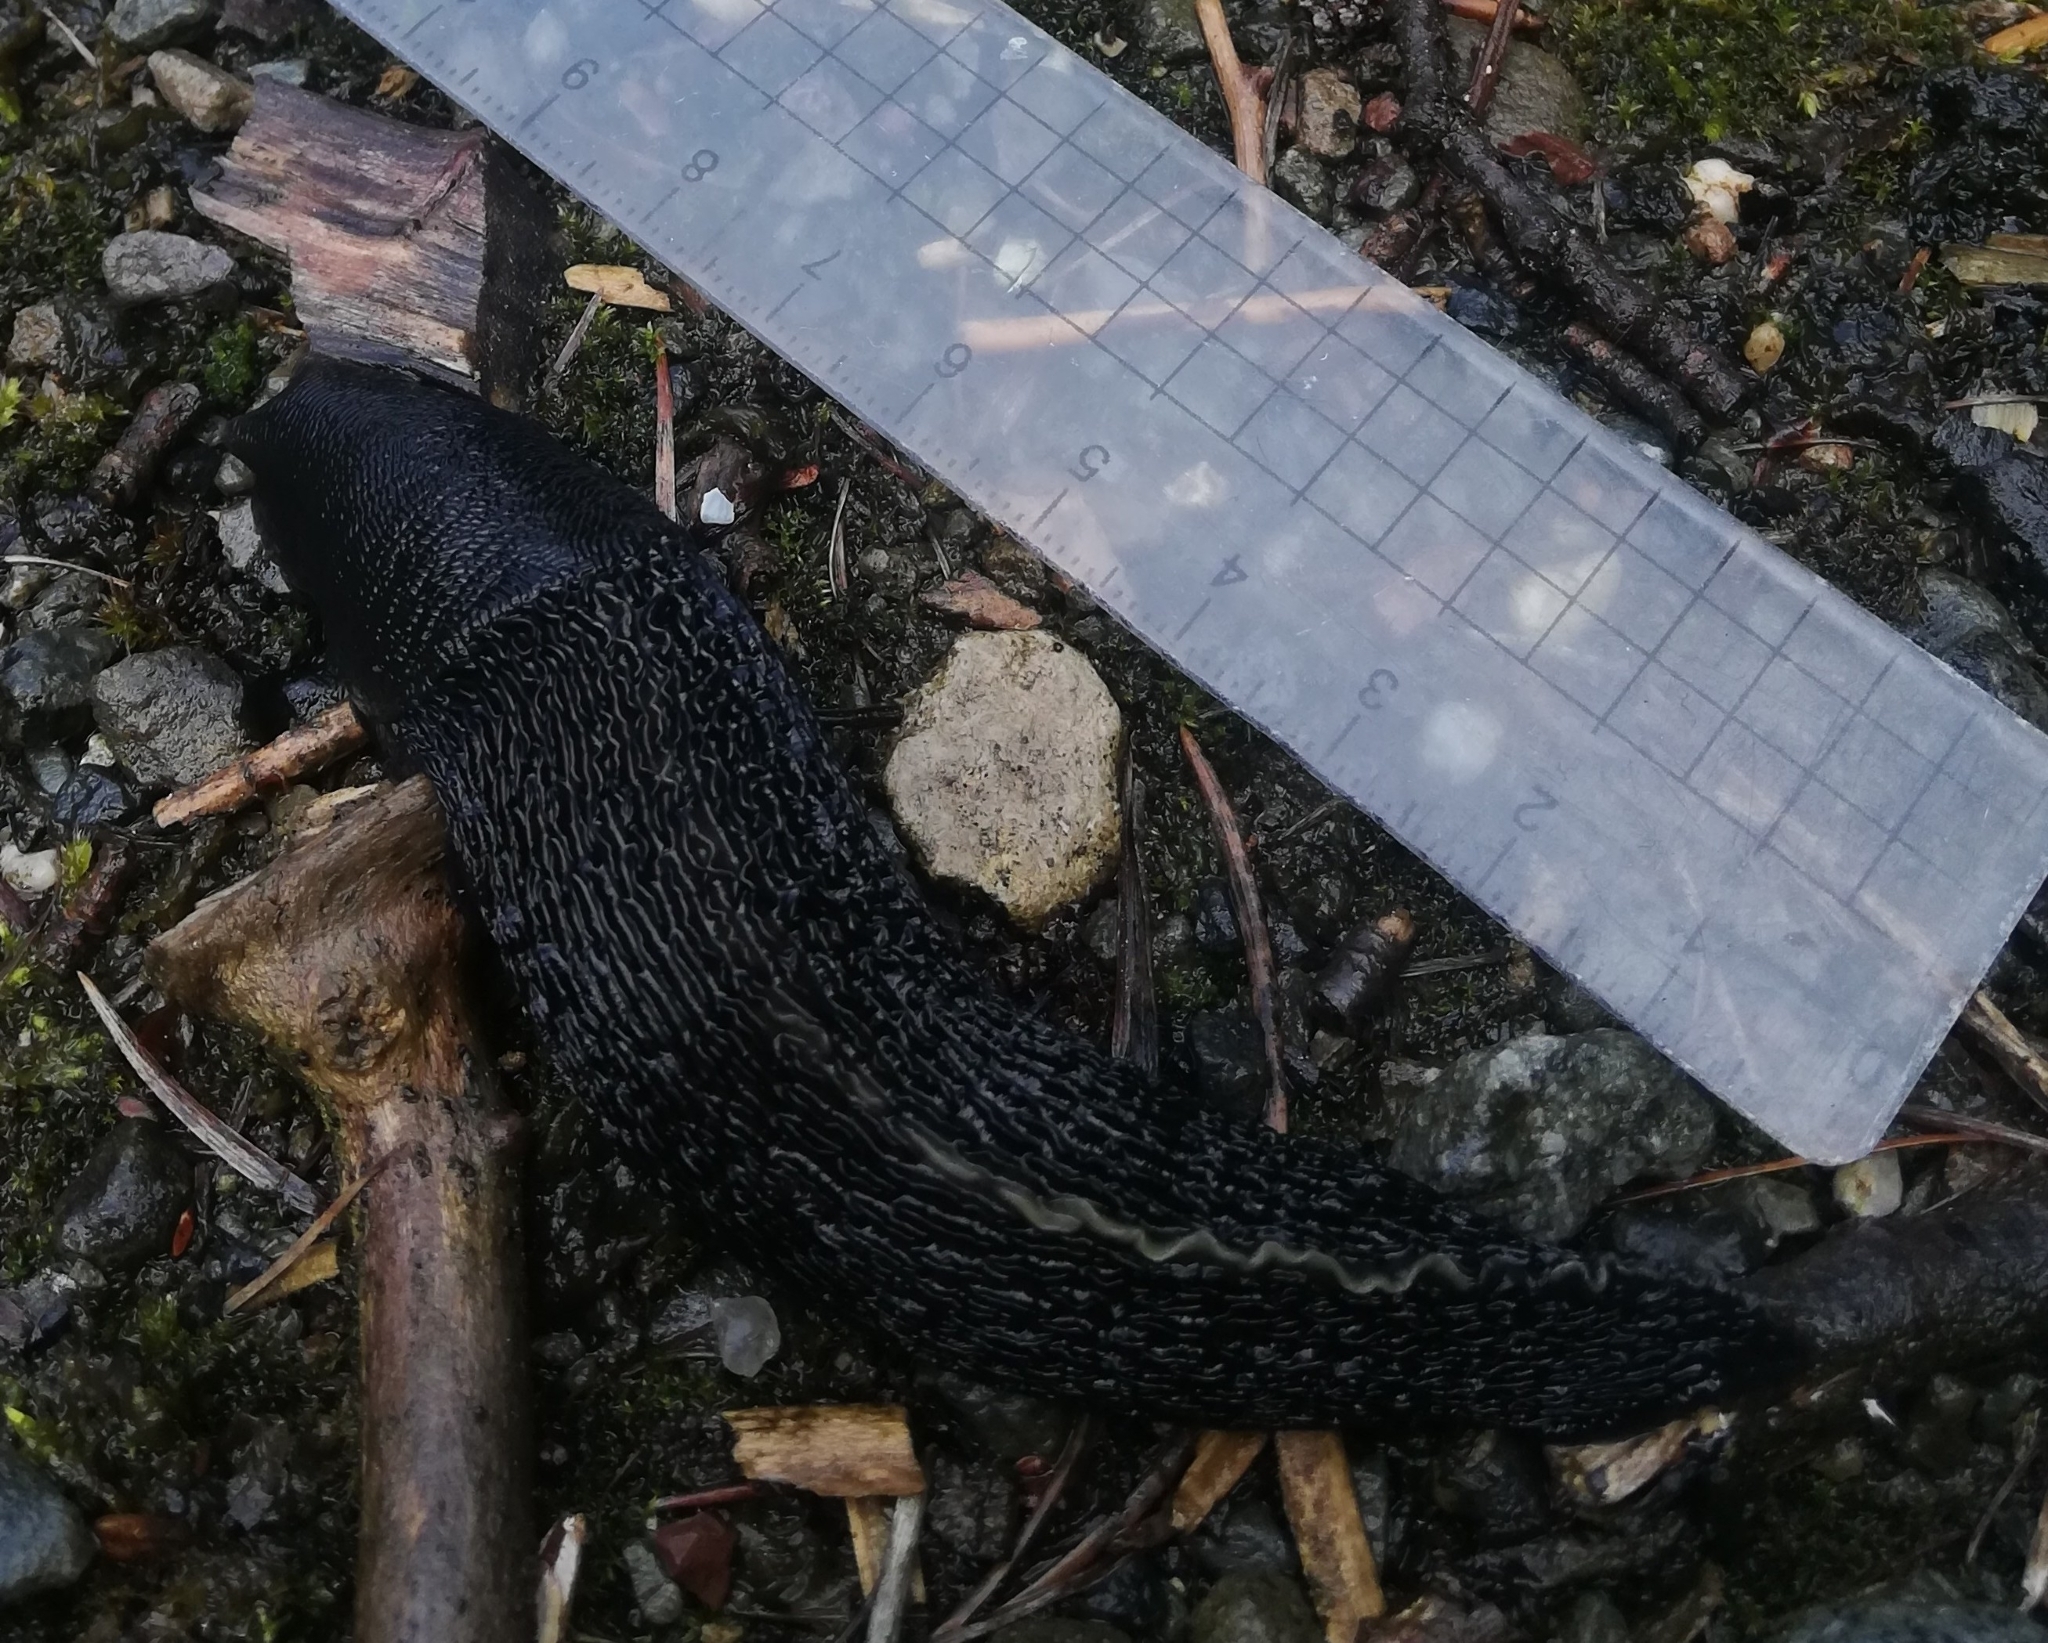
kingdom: Animalia
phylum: Mollusca
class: Gastropoda
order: Stylommatophora
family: Limacidae
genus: Limax
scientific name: Limax cinereoniger
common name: Ash-black slug
